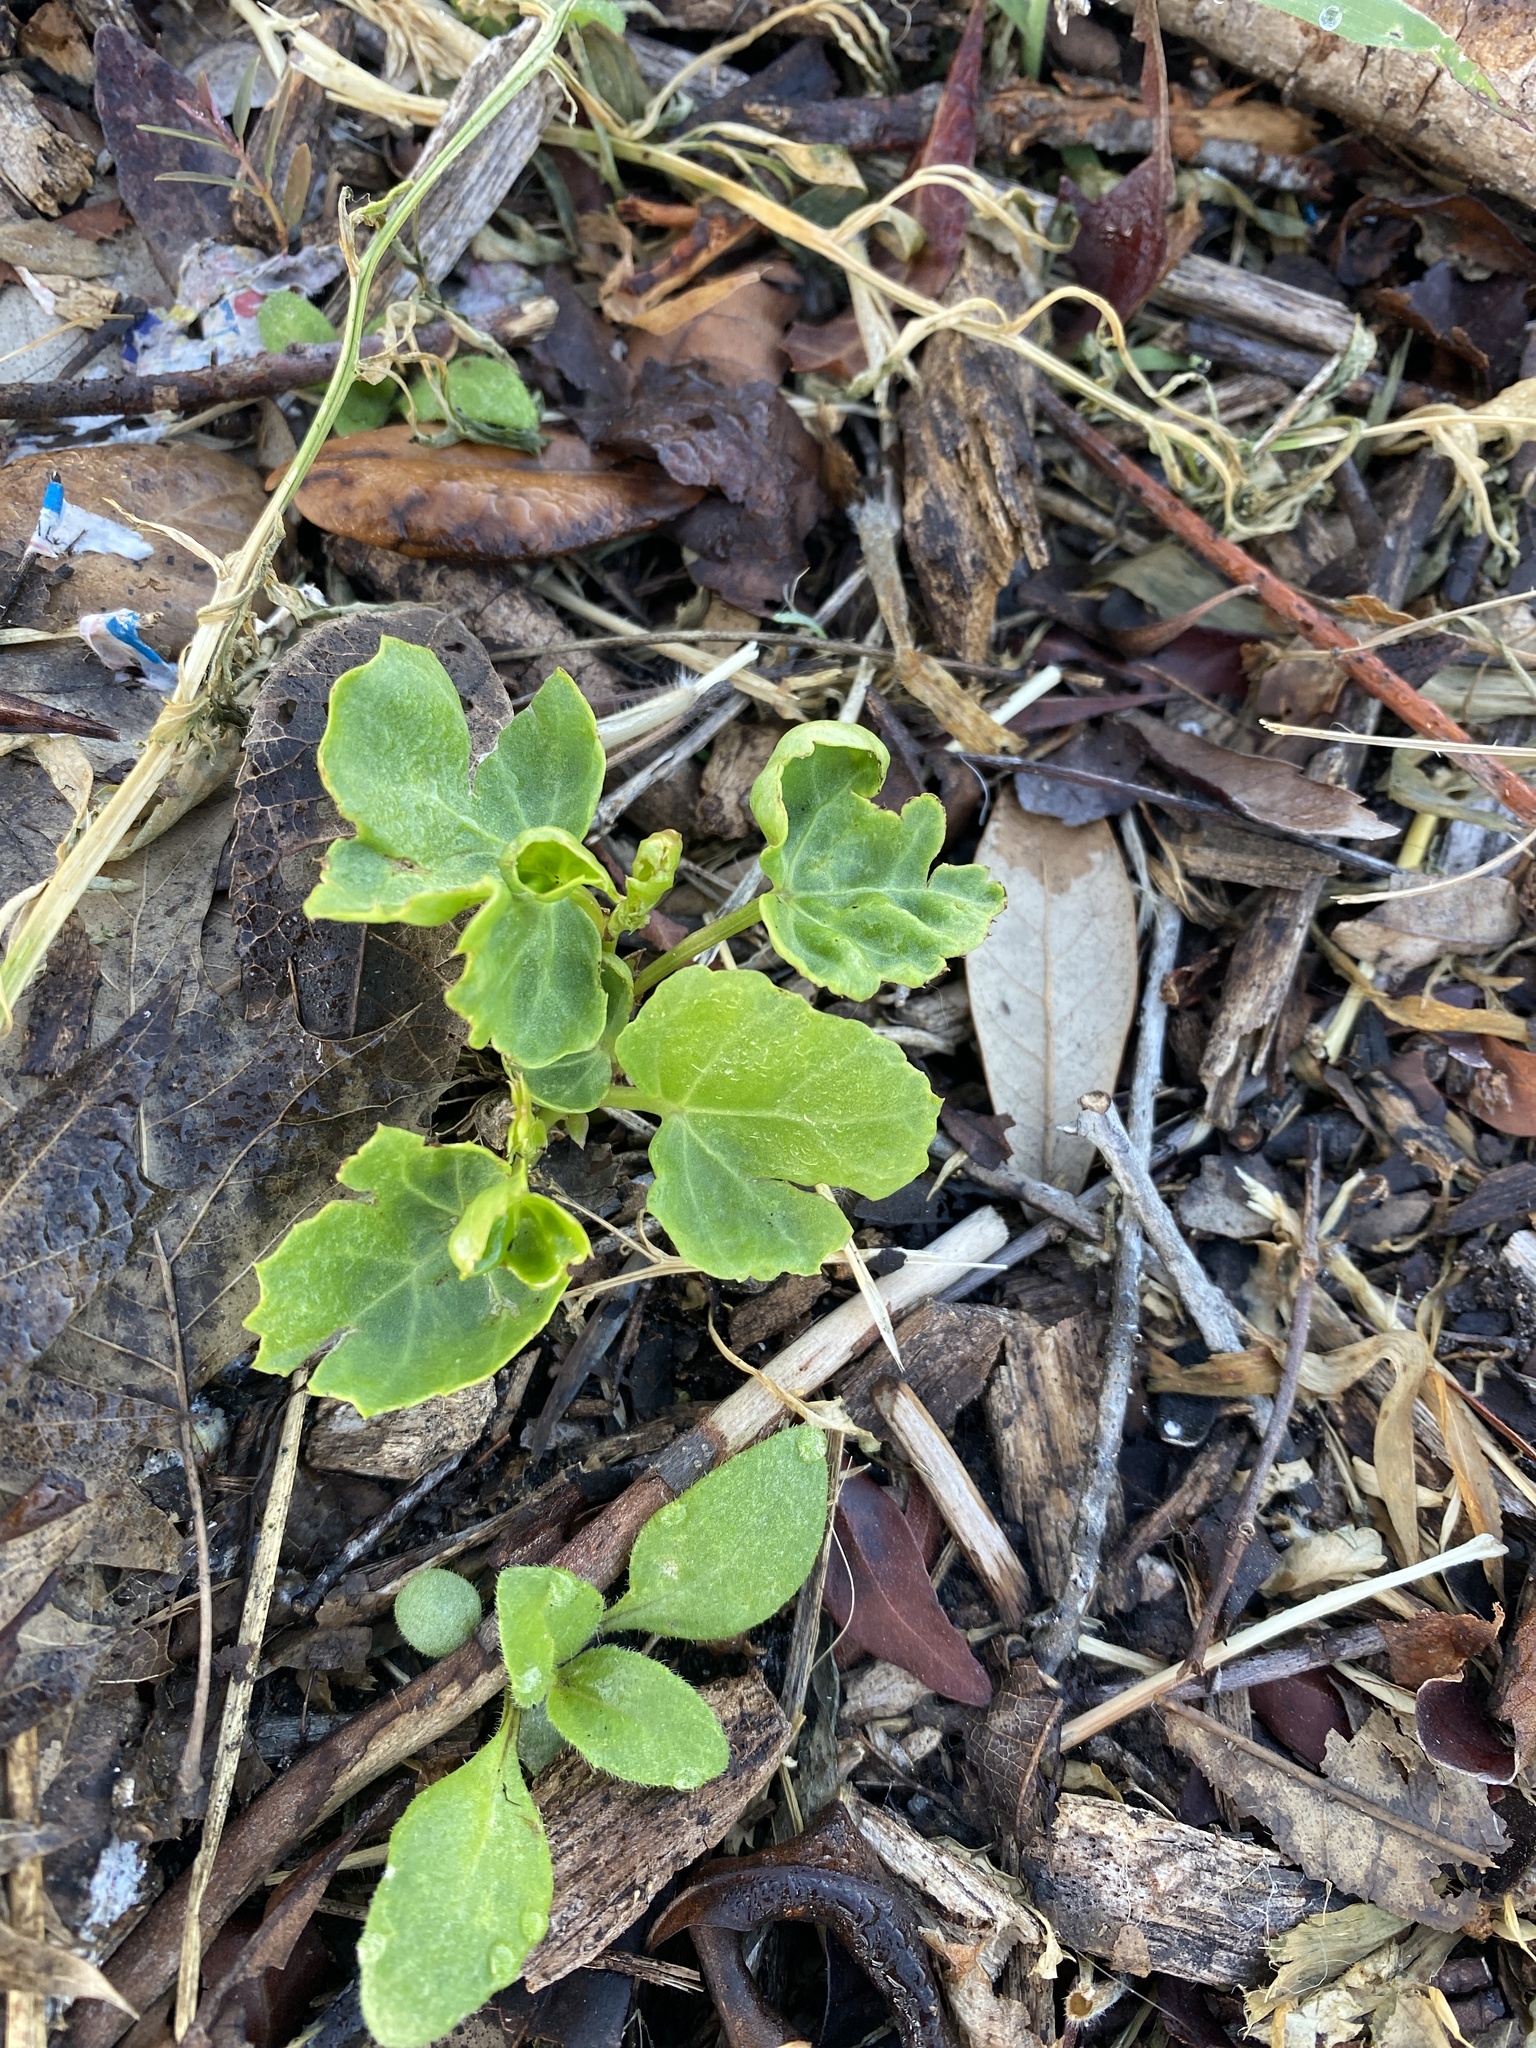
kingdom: Plantae
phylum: Tracheophyta
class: Magnoliopsida
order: Vitales
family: Vitaceae
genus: Cissus
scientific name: Cissus trifoliata
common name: Vine-sorrel
